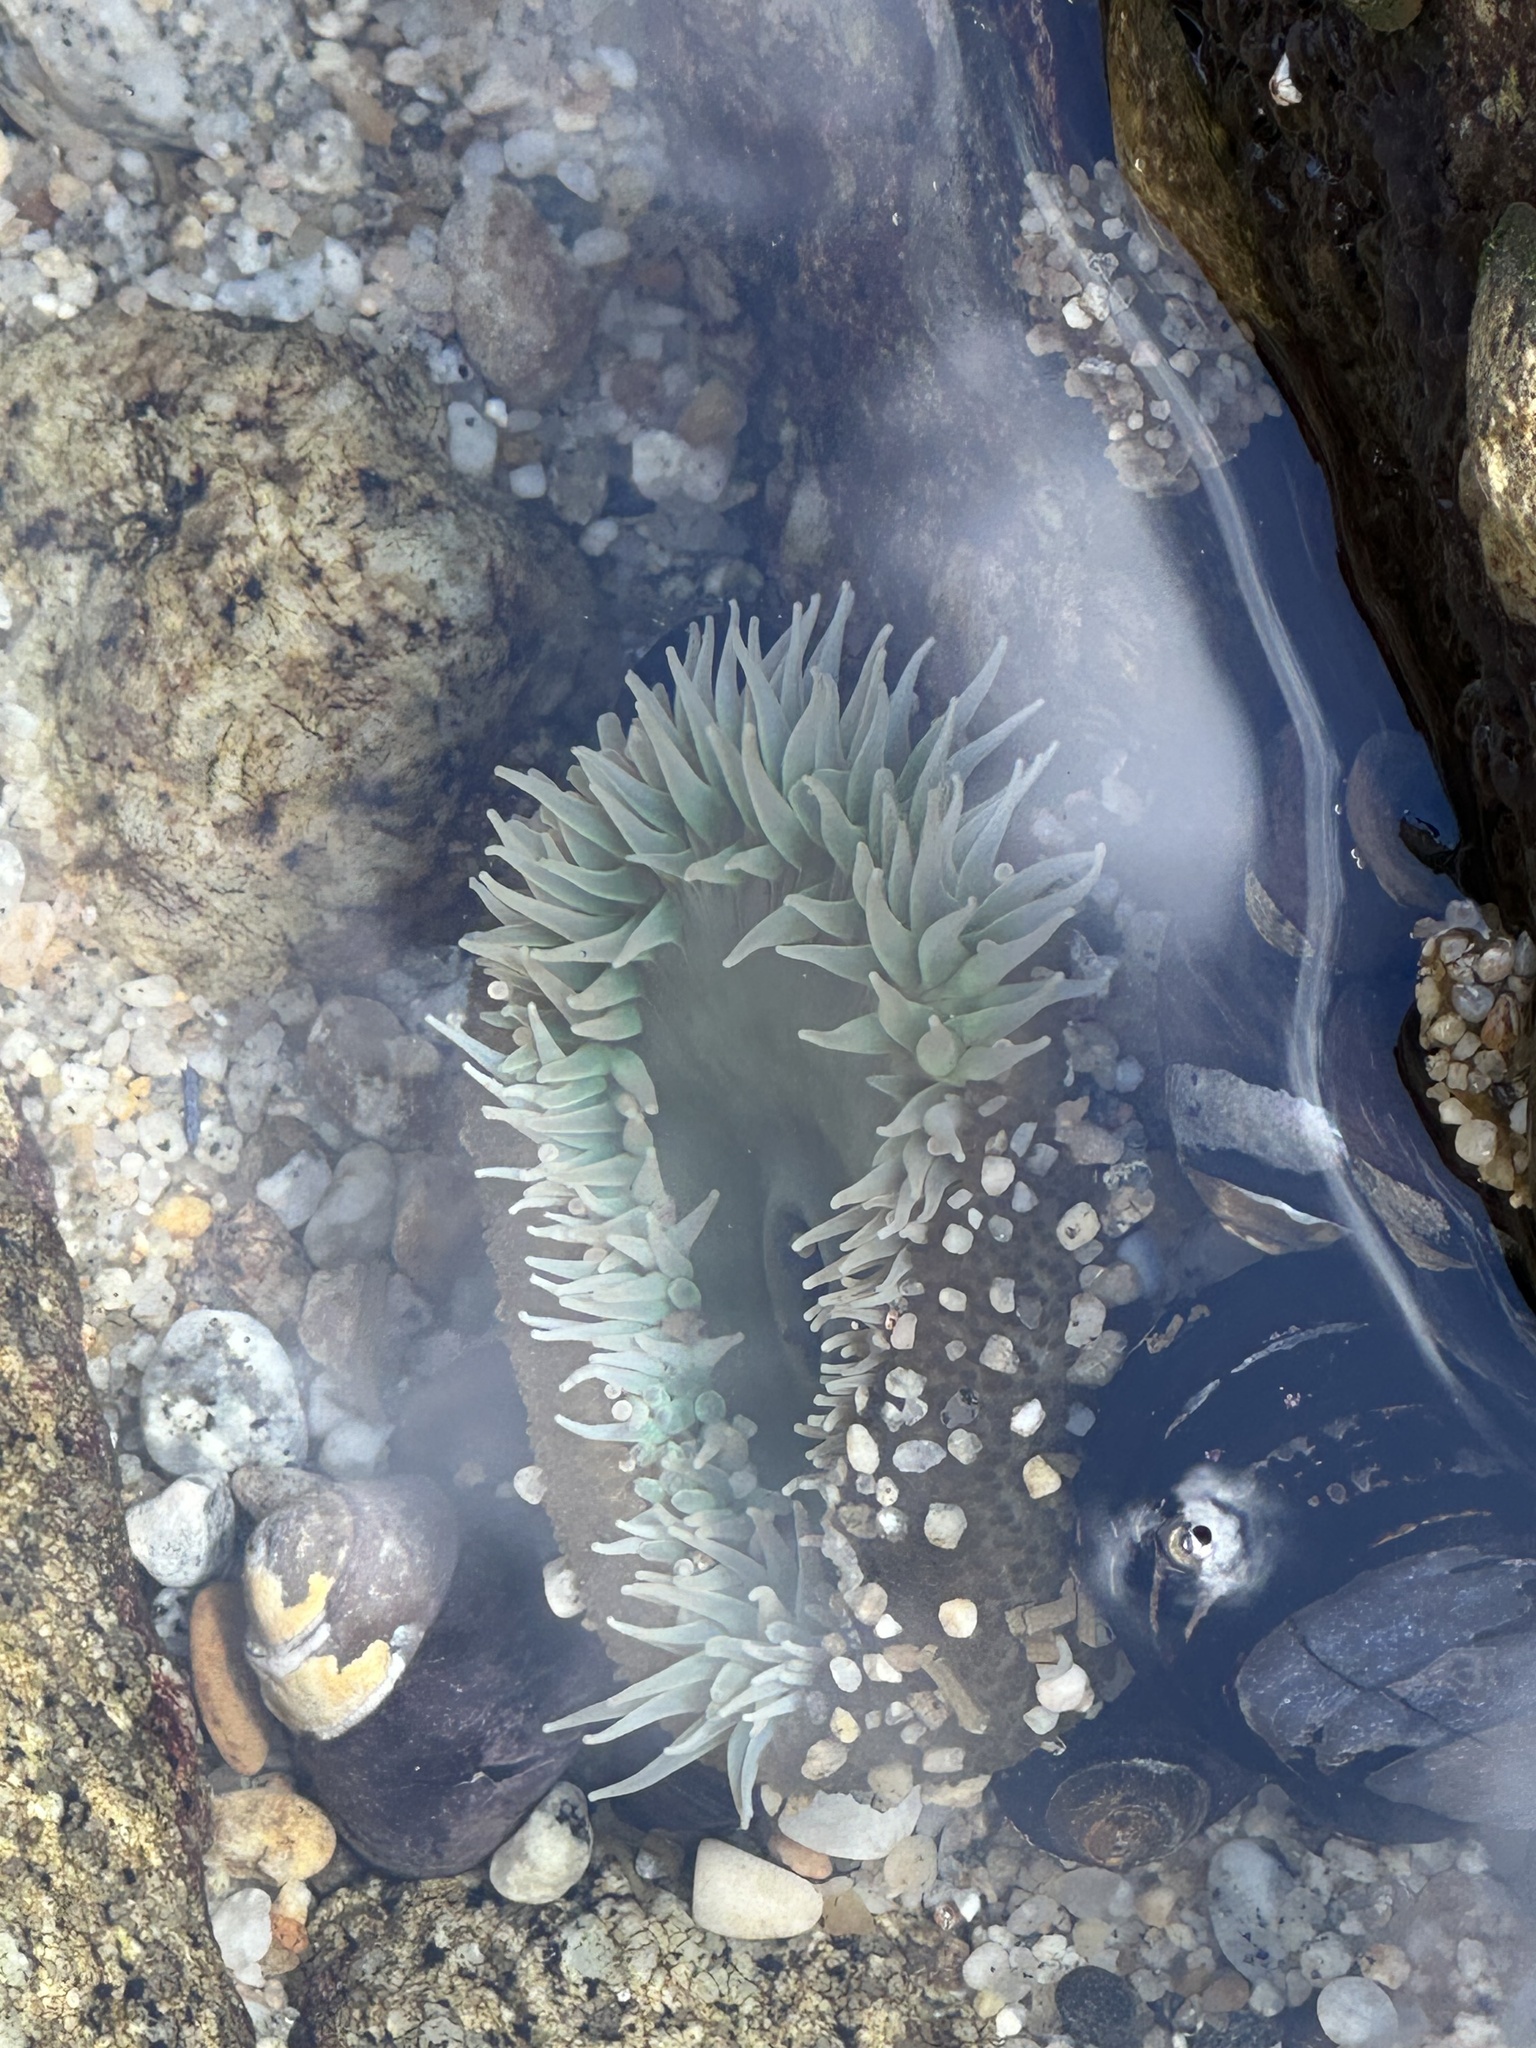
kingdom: Animalia
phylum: Cnidaria
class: Anthozoa
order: Actiniaria
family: Actiniidae
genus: Anthopleura
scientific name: Anthopleura xanthogrammica
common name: Giant green anemone
